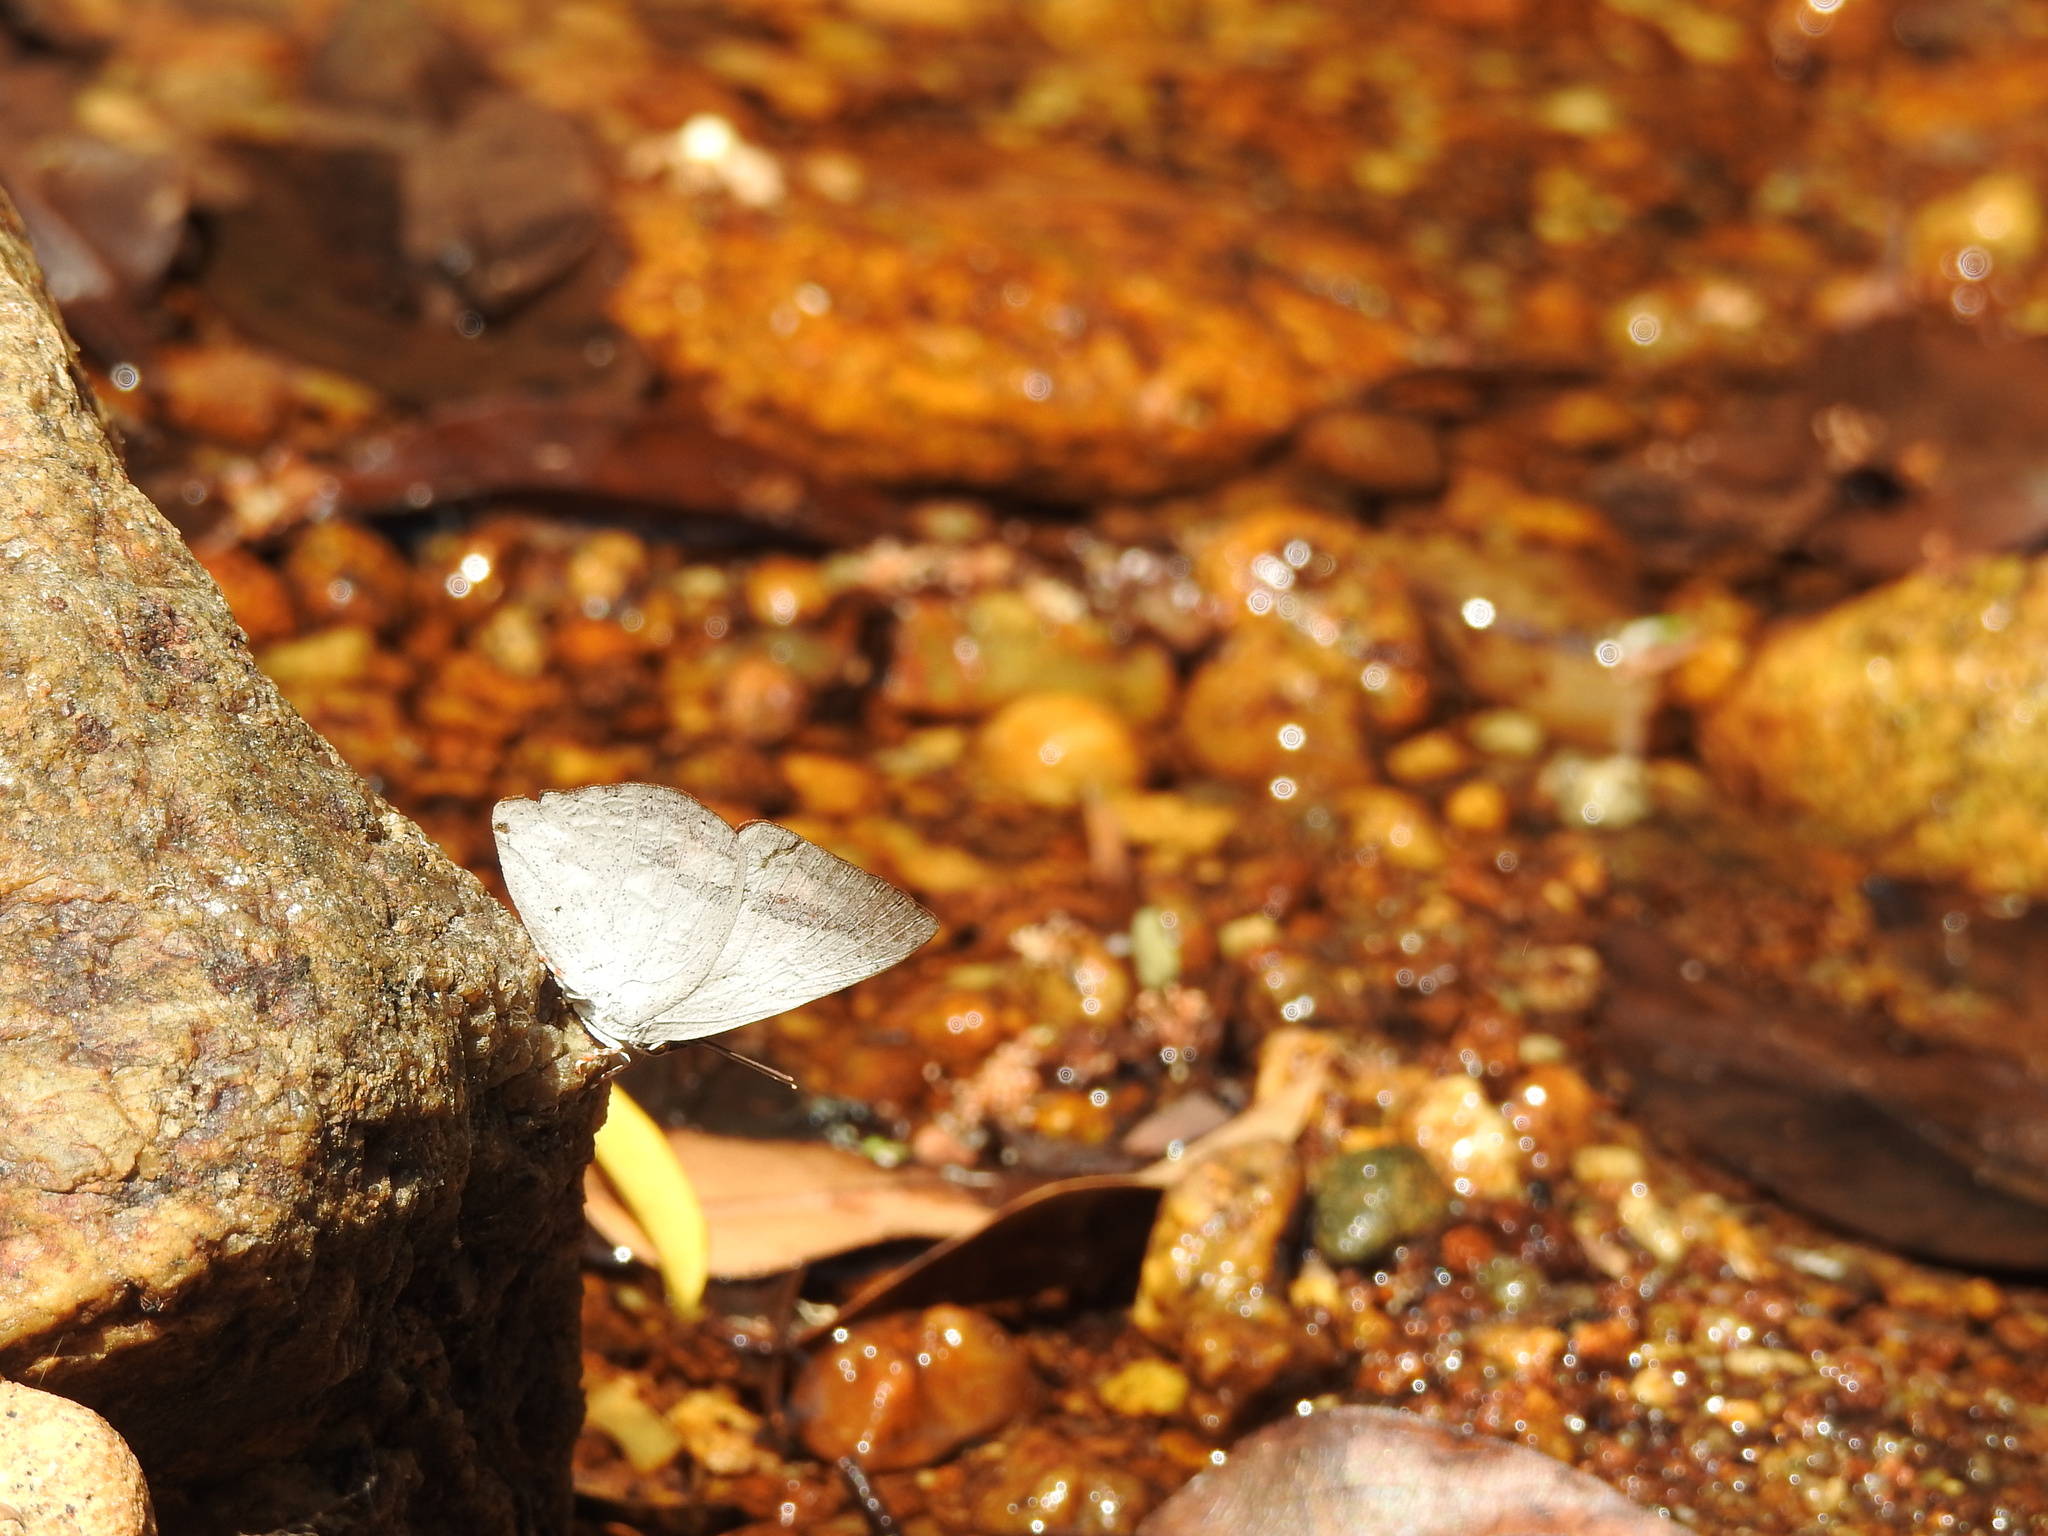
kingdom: Animalia
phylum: Arthropoda
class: Insecta
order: Lepidoptera
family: Lycaenidae
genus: Curetis
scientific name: Curetis siva
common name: Shiva sunbeam
